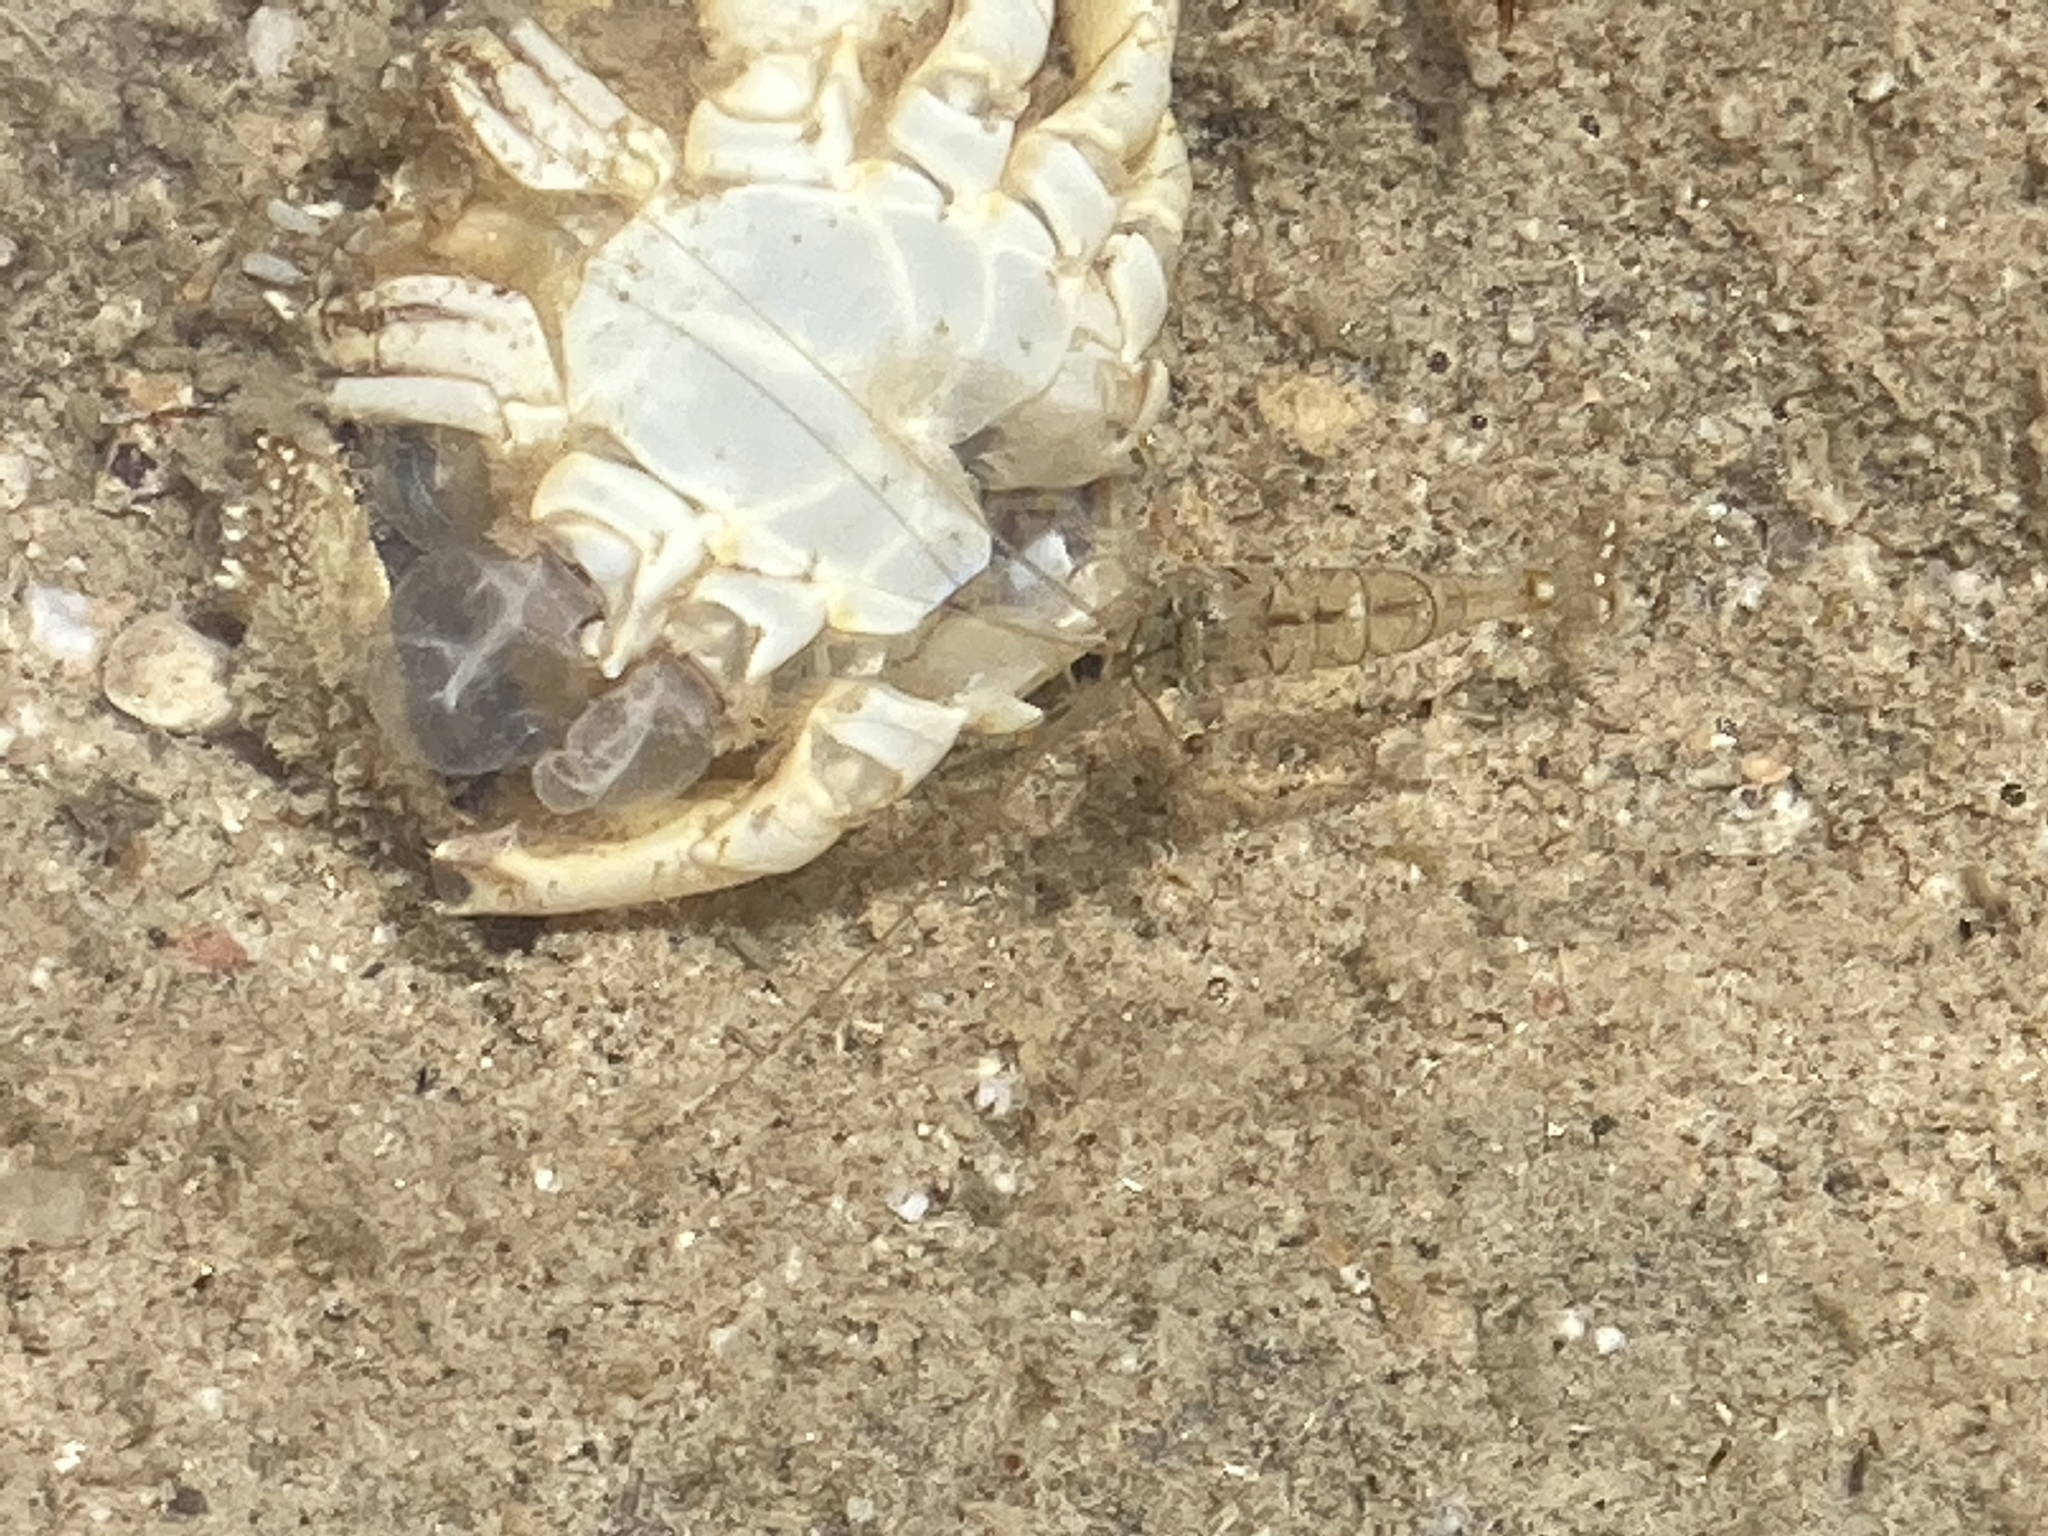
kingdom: Animalia
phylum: Arthropoda
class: Malacostraca
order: Decapoda
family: Palaemonidae
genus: Palaemon
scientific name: Palaemon
